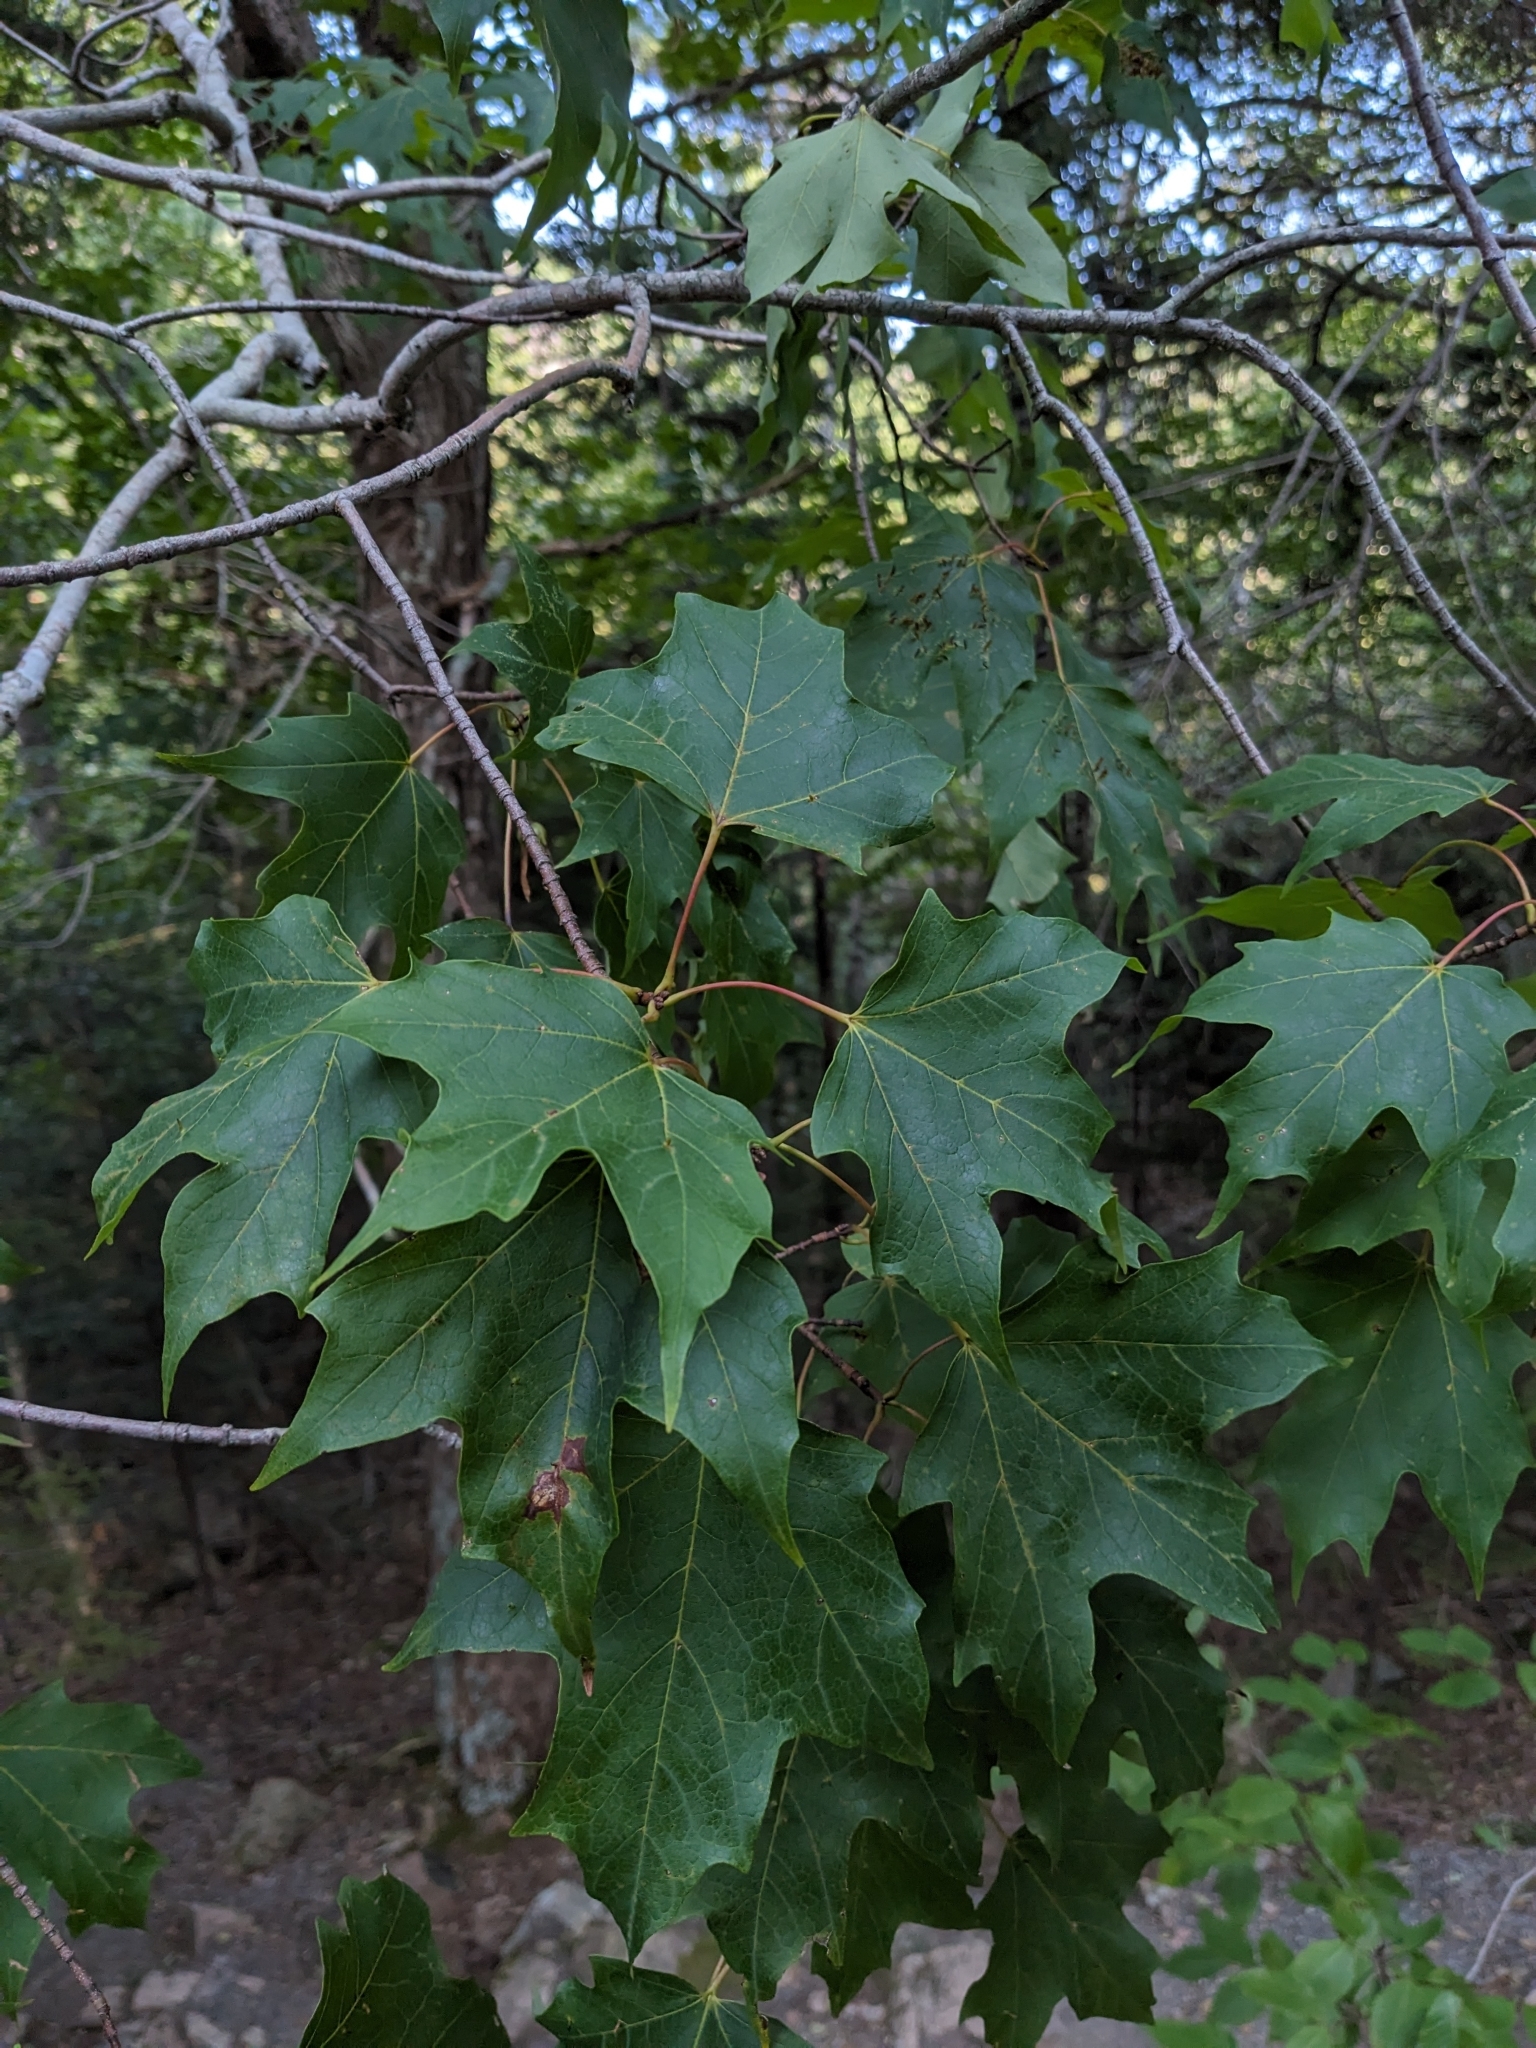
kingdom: Plantae
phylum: Tracheophyta
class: Magnoliopsida
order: Sapindales
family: Sapindaceae
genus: Acer
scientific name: Acer saccharum
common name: Sugar maple
